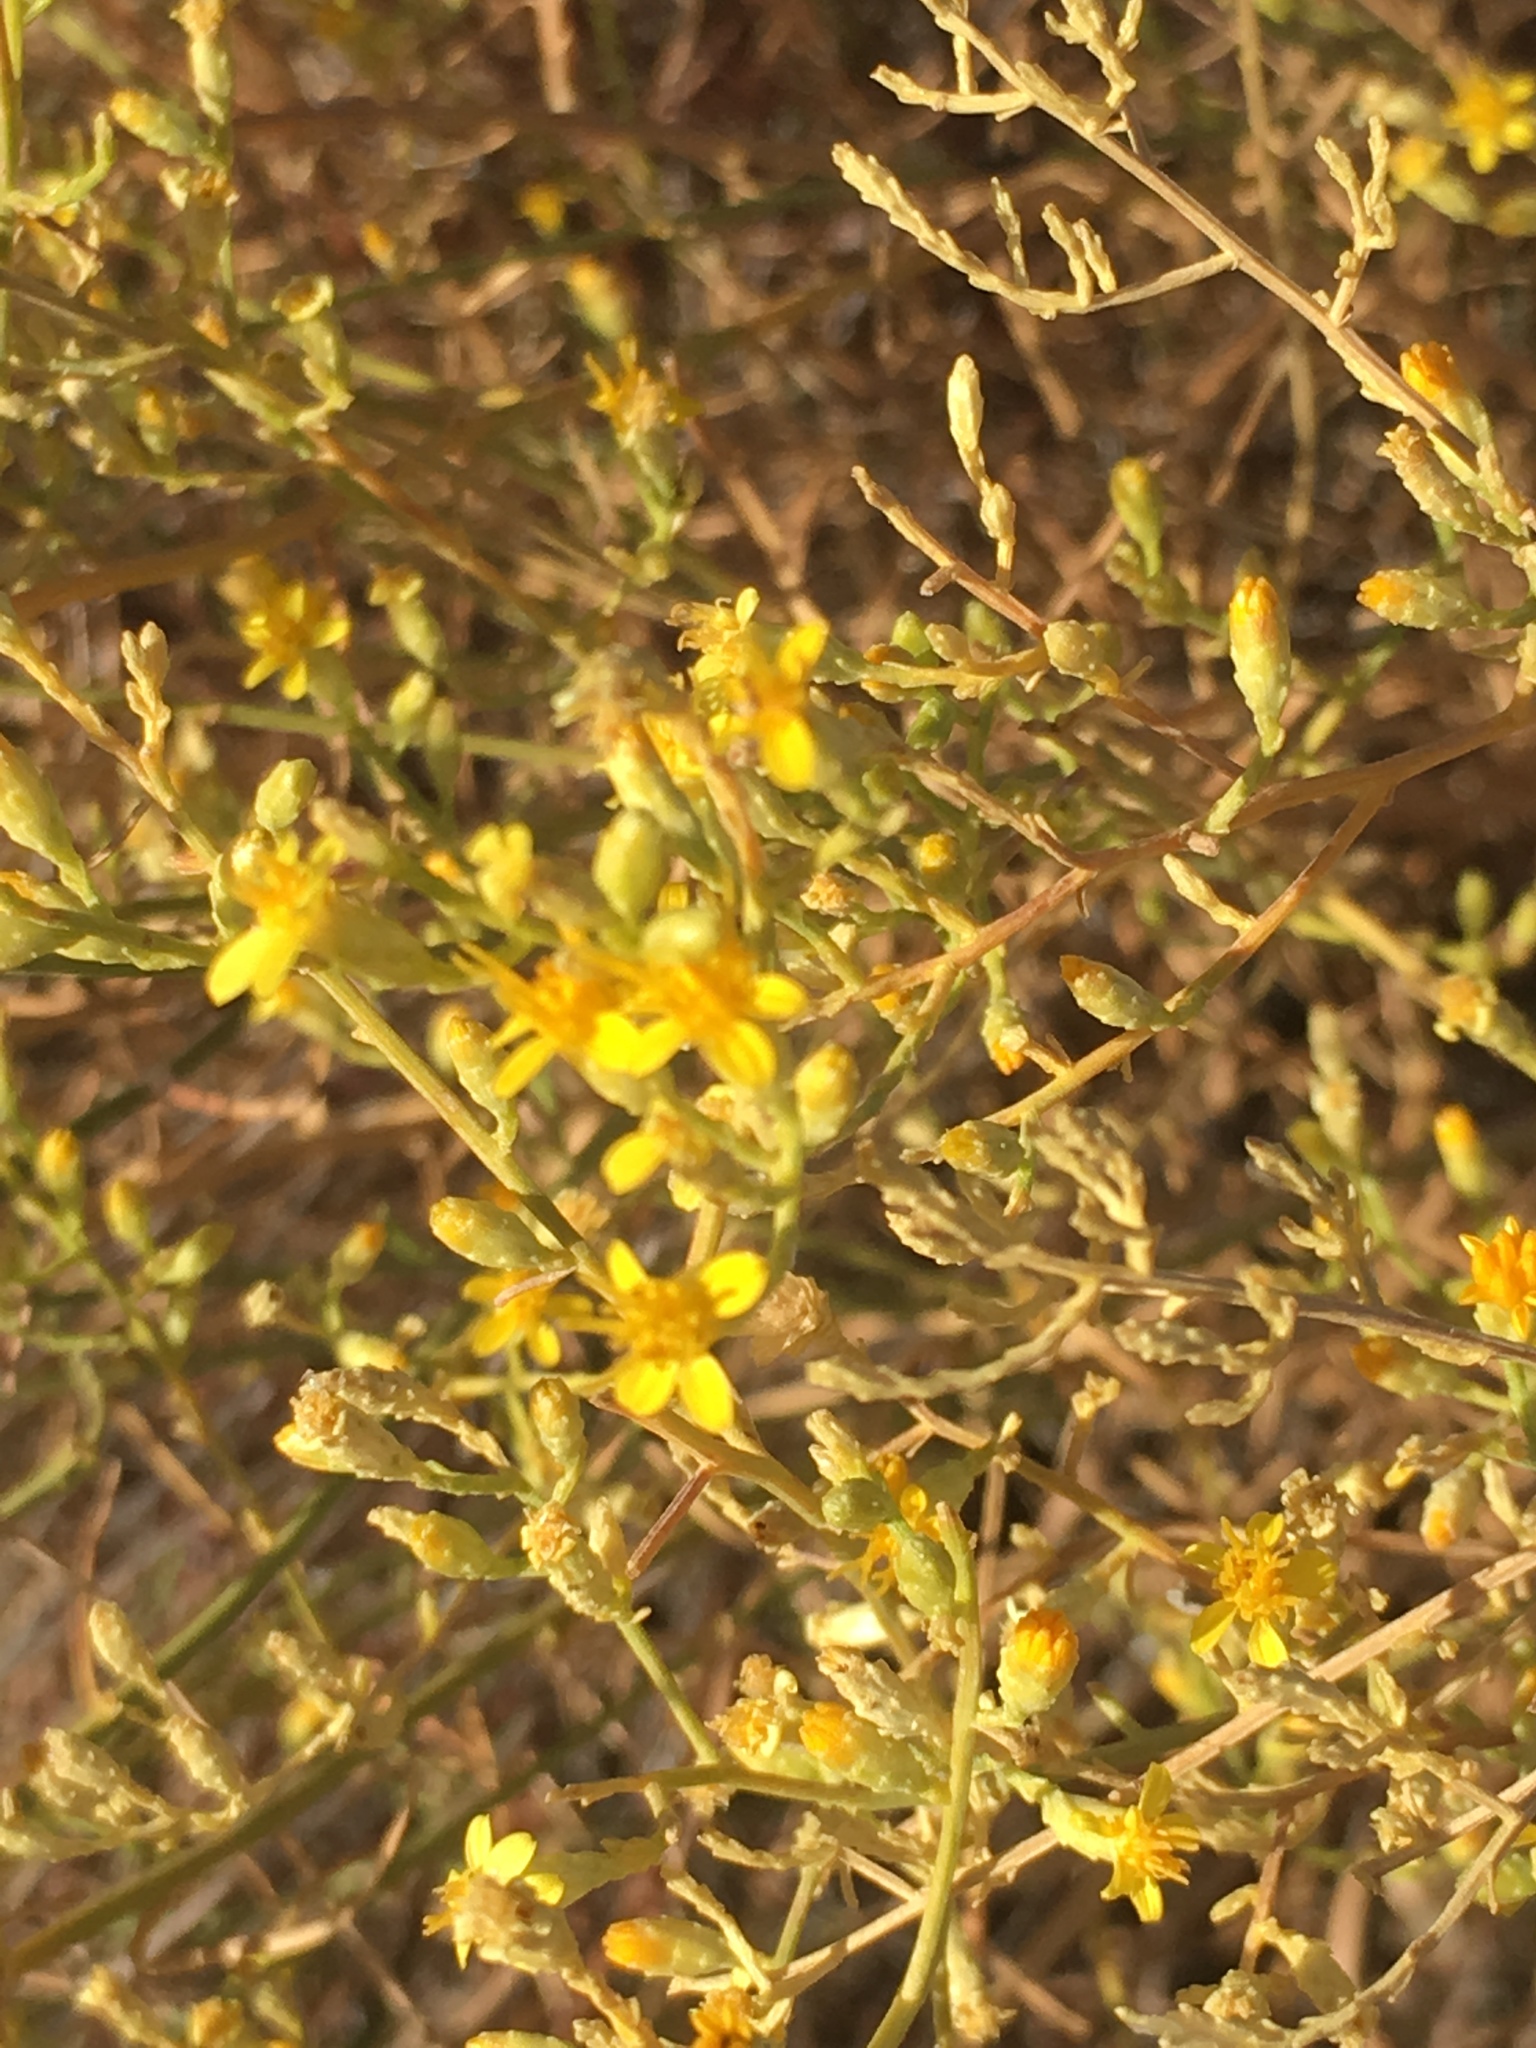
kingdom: Plantae
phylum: Tracheophyta
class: Magnoliopsida
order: Asterales
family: Asteraceae
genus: Gutierrezia
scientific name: Gutierrezia sarothrae
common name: Broom snakeweed
